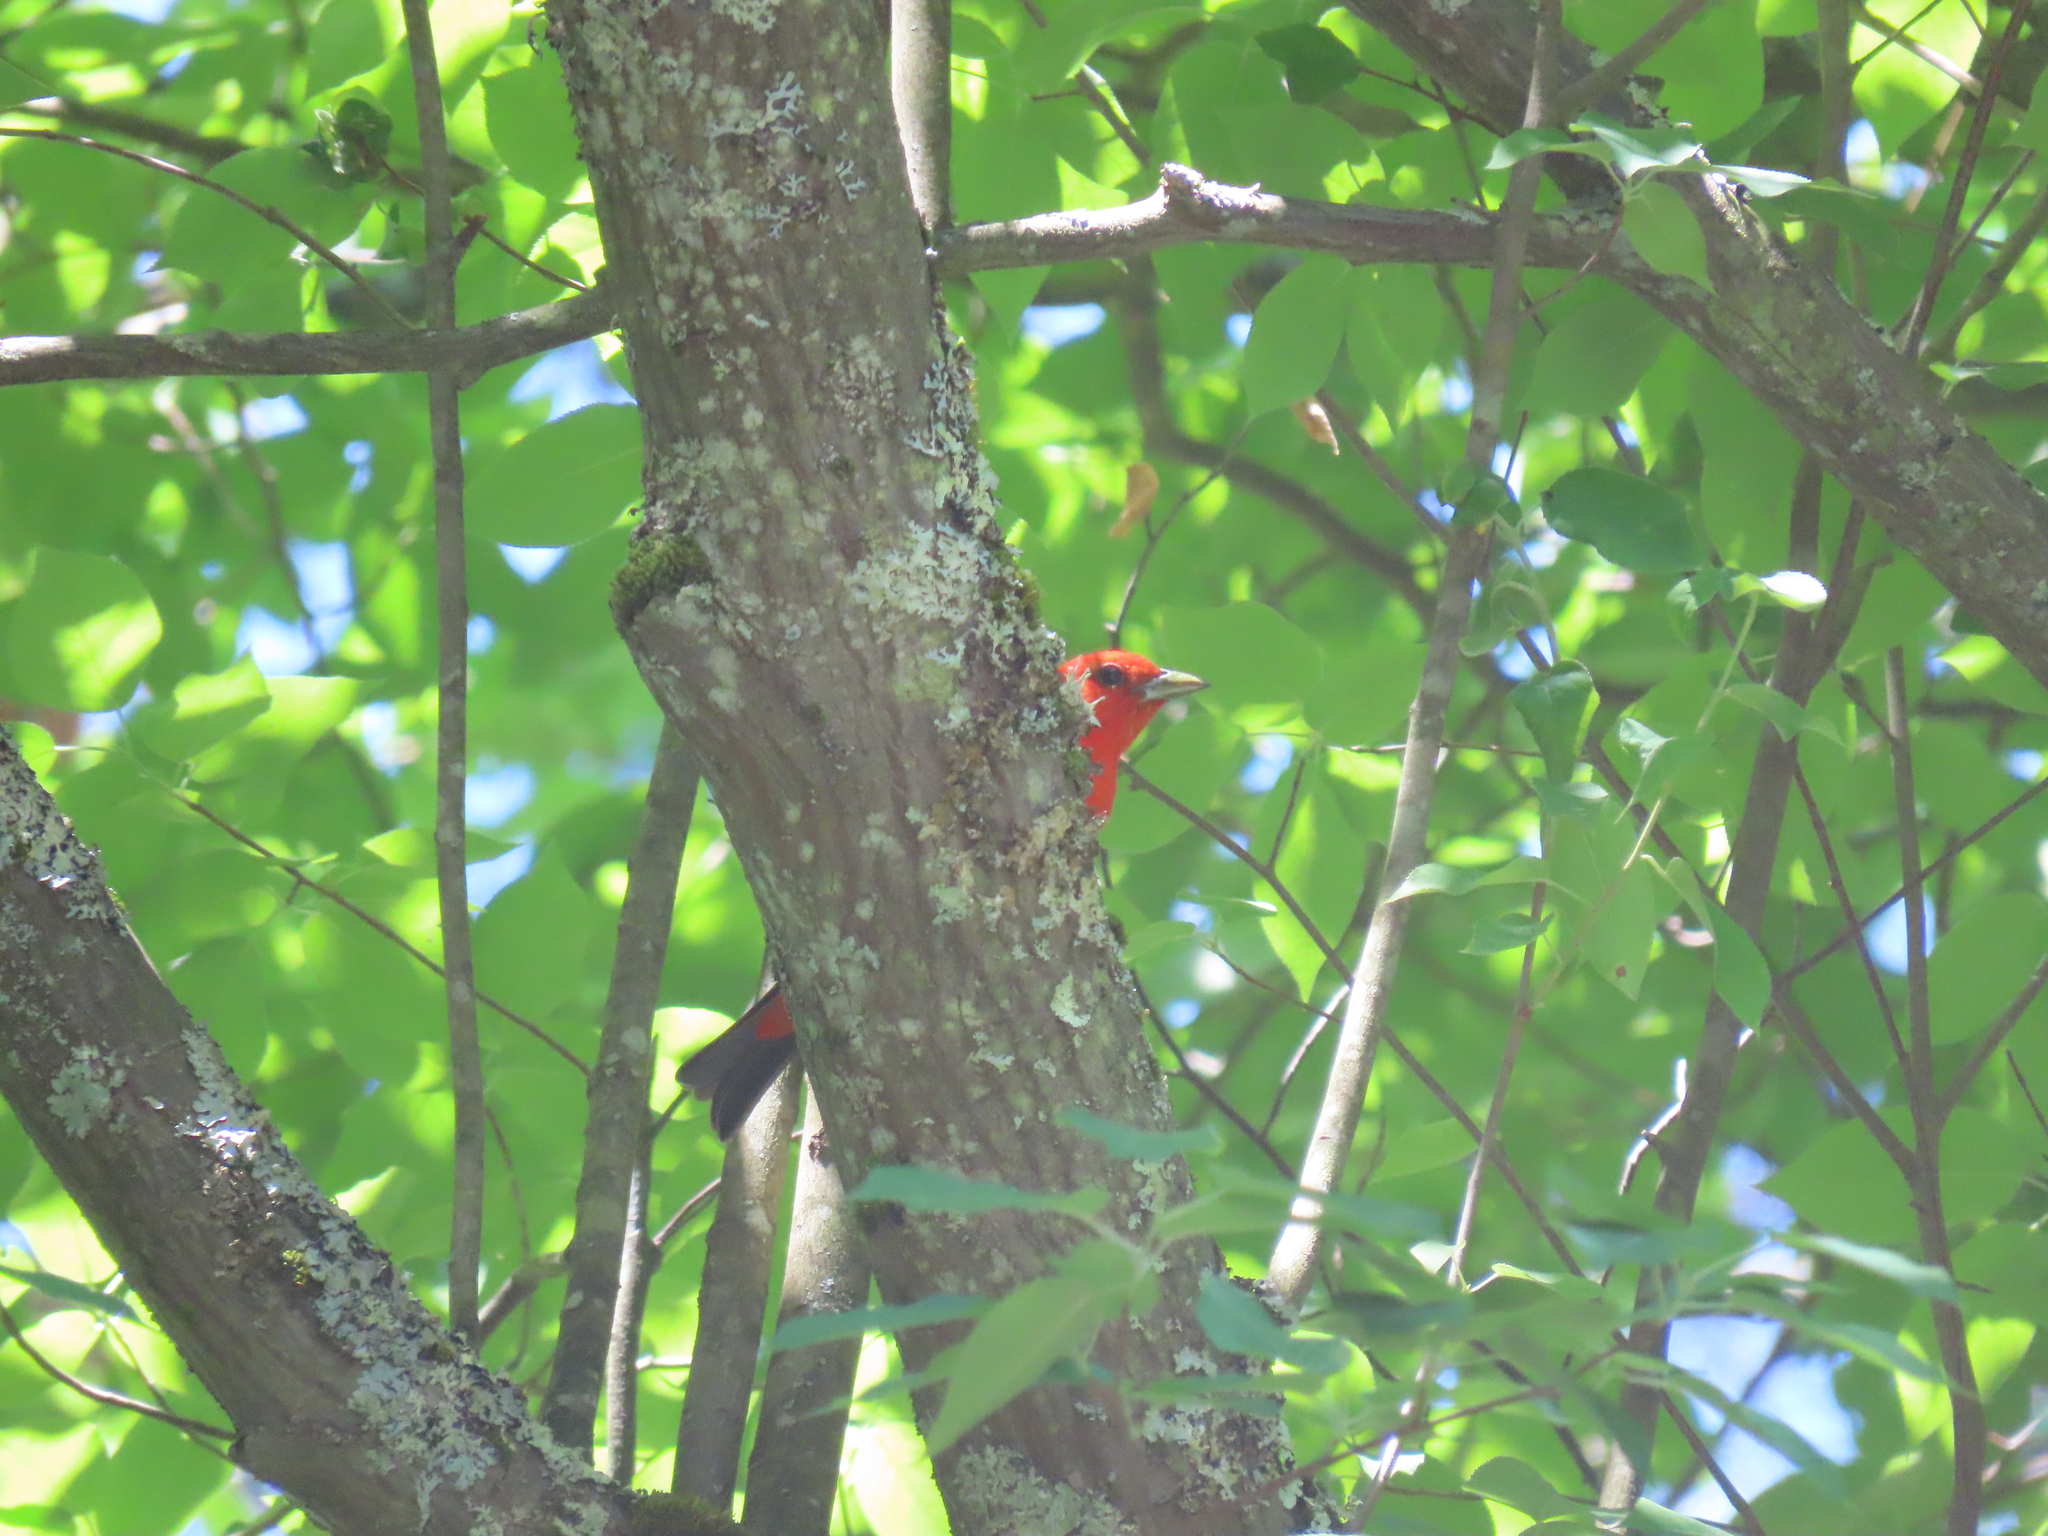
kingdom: Animalia
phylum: Chordata
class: Aves
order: Passeriformes
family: Cardinalidae
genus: Piranga
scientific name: Piranga olivacea
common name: Scarlet tanager
